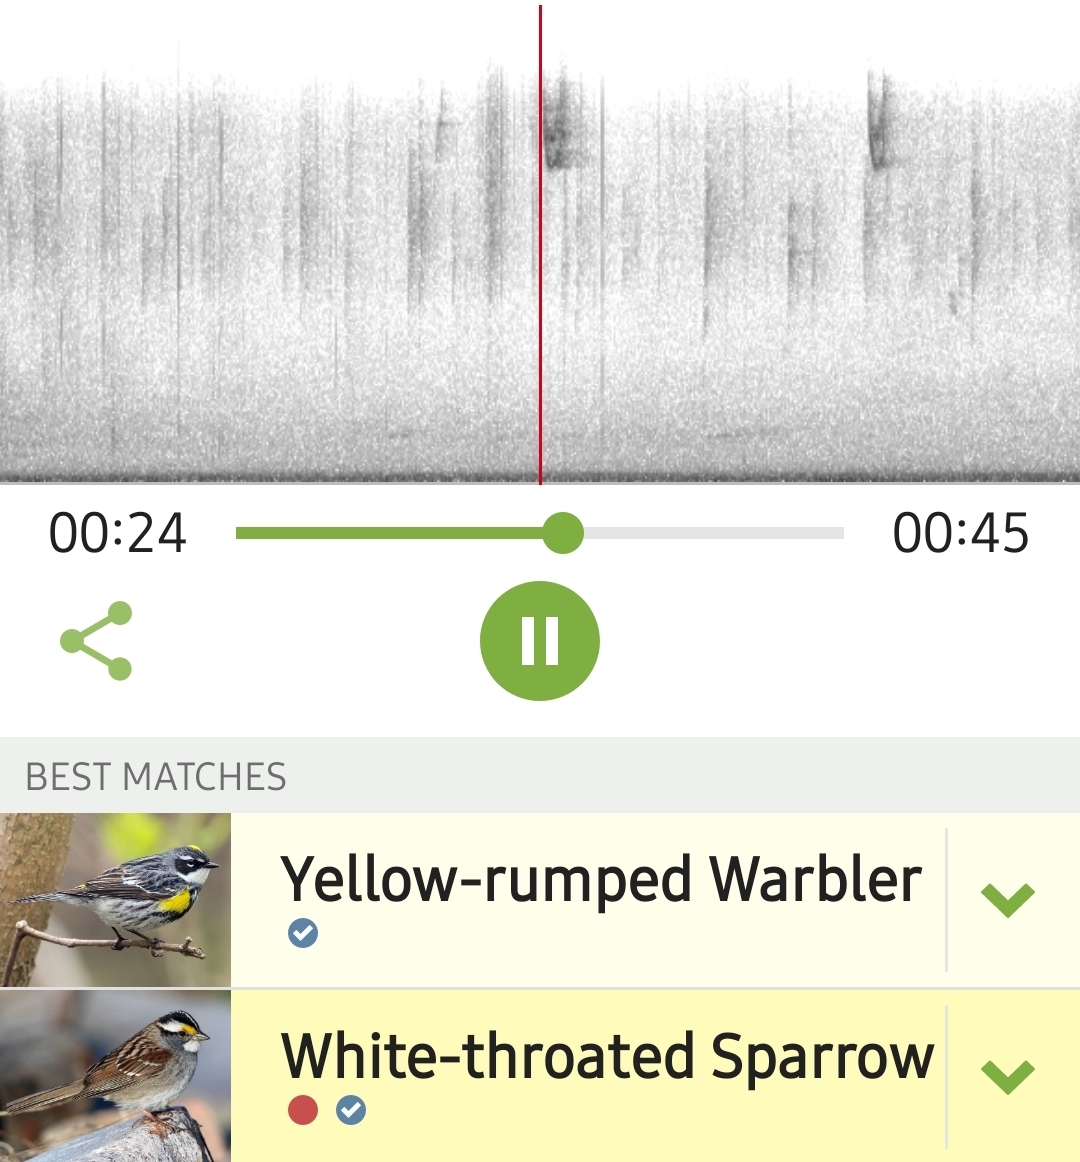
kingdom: Animalia
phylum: Chordata
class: Aves
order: Passeriformes
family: Passerellidae
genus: Zonotrichia
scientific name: Zonotrichia albicollis
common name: White-throated sparrow
